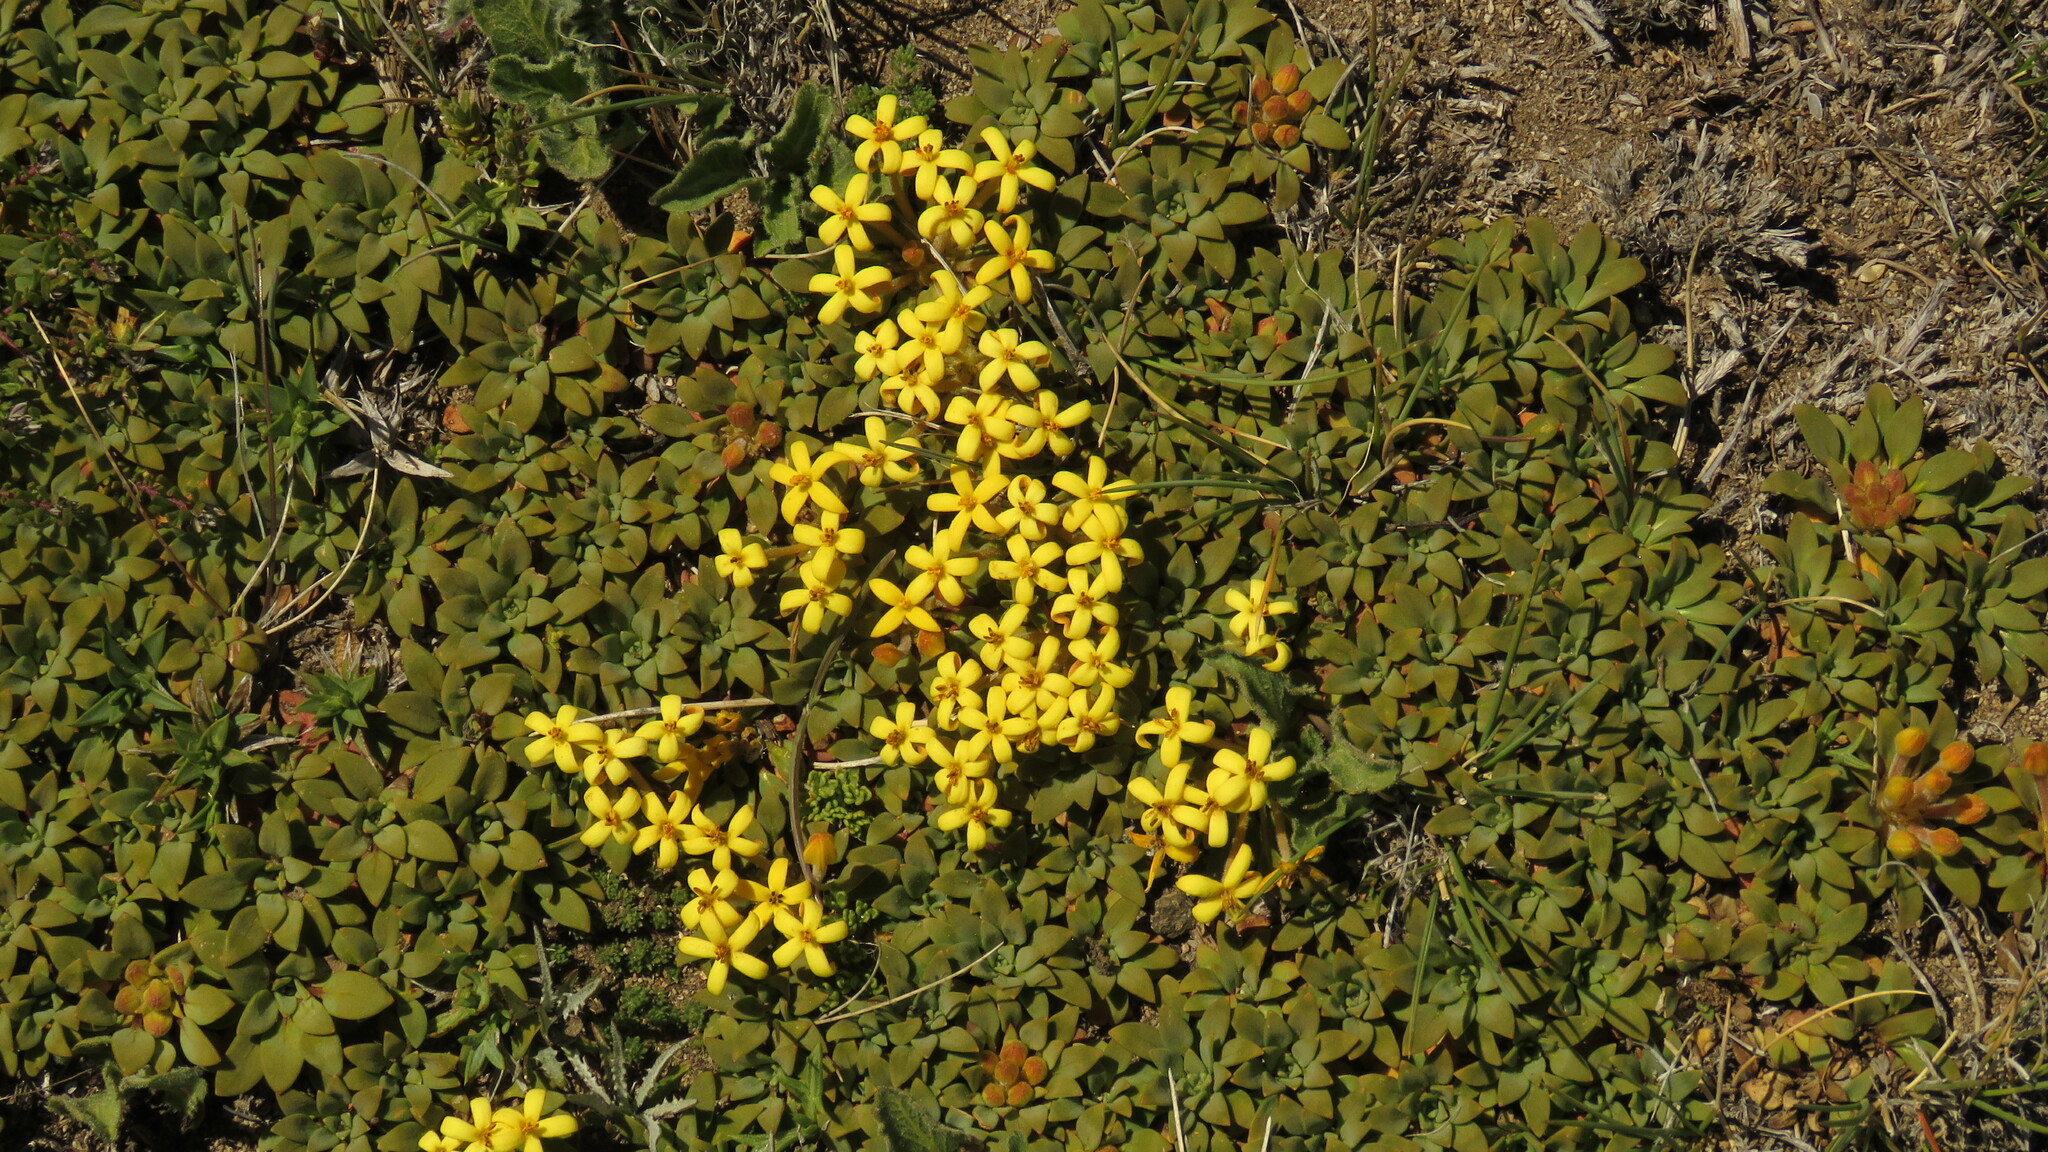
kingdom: Plantae
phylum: Tracheophyta
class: Magnoliopsida
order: Gentianales
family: Rubiaceae
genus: Oreopolus
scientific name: Oreopolus glacialis
